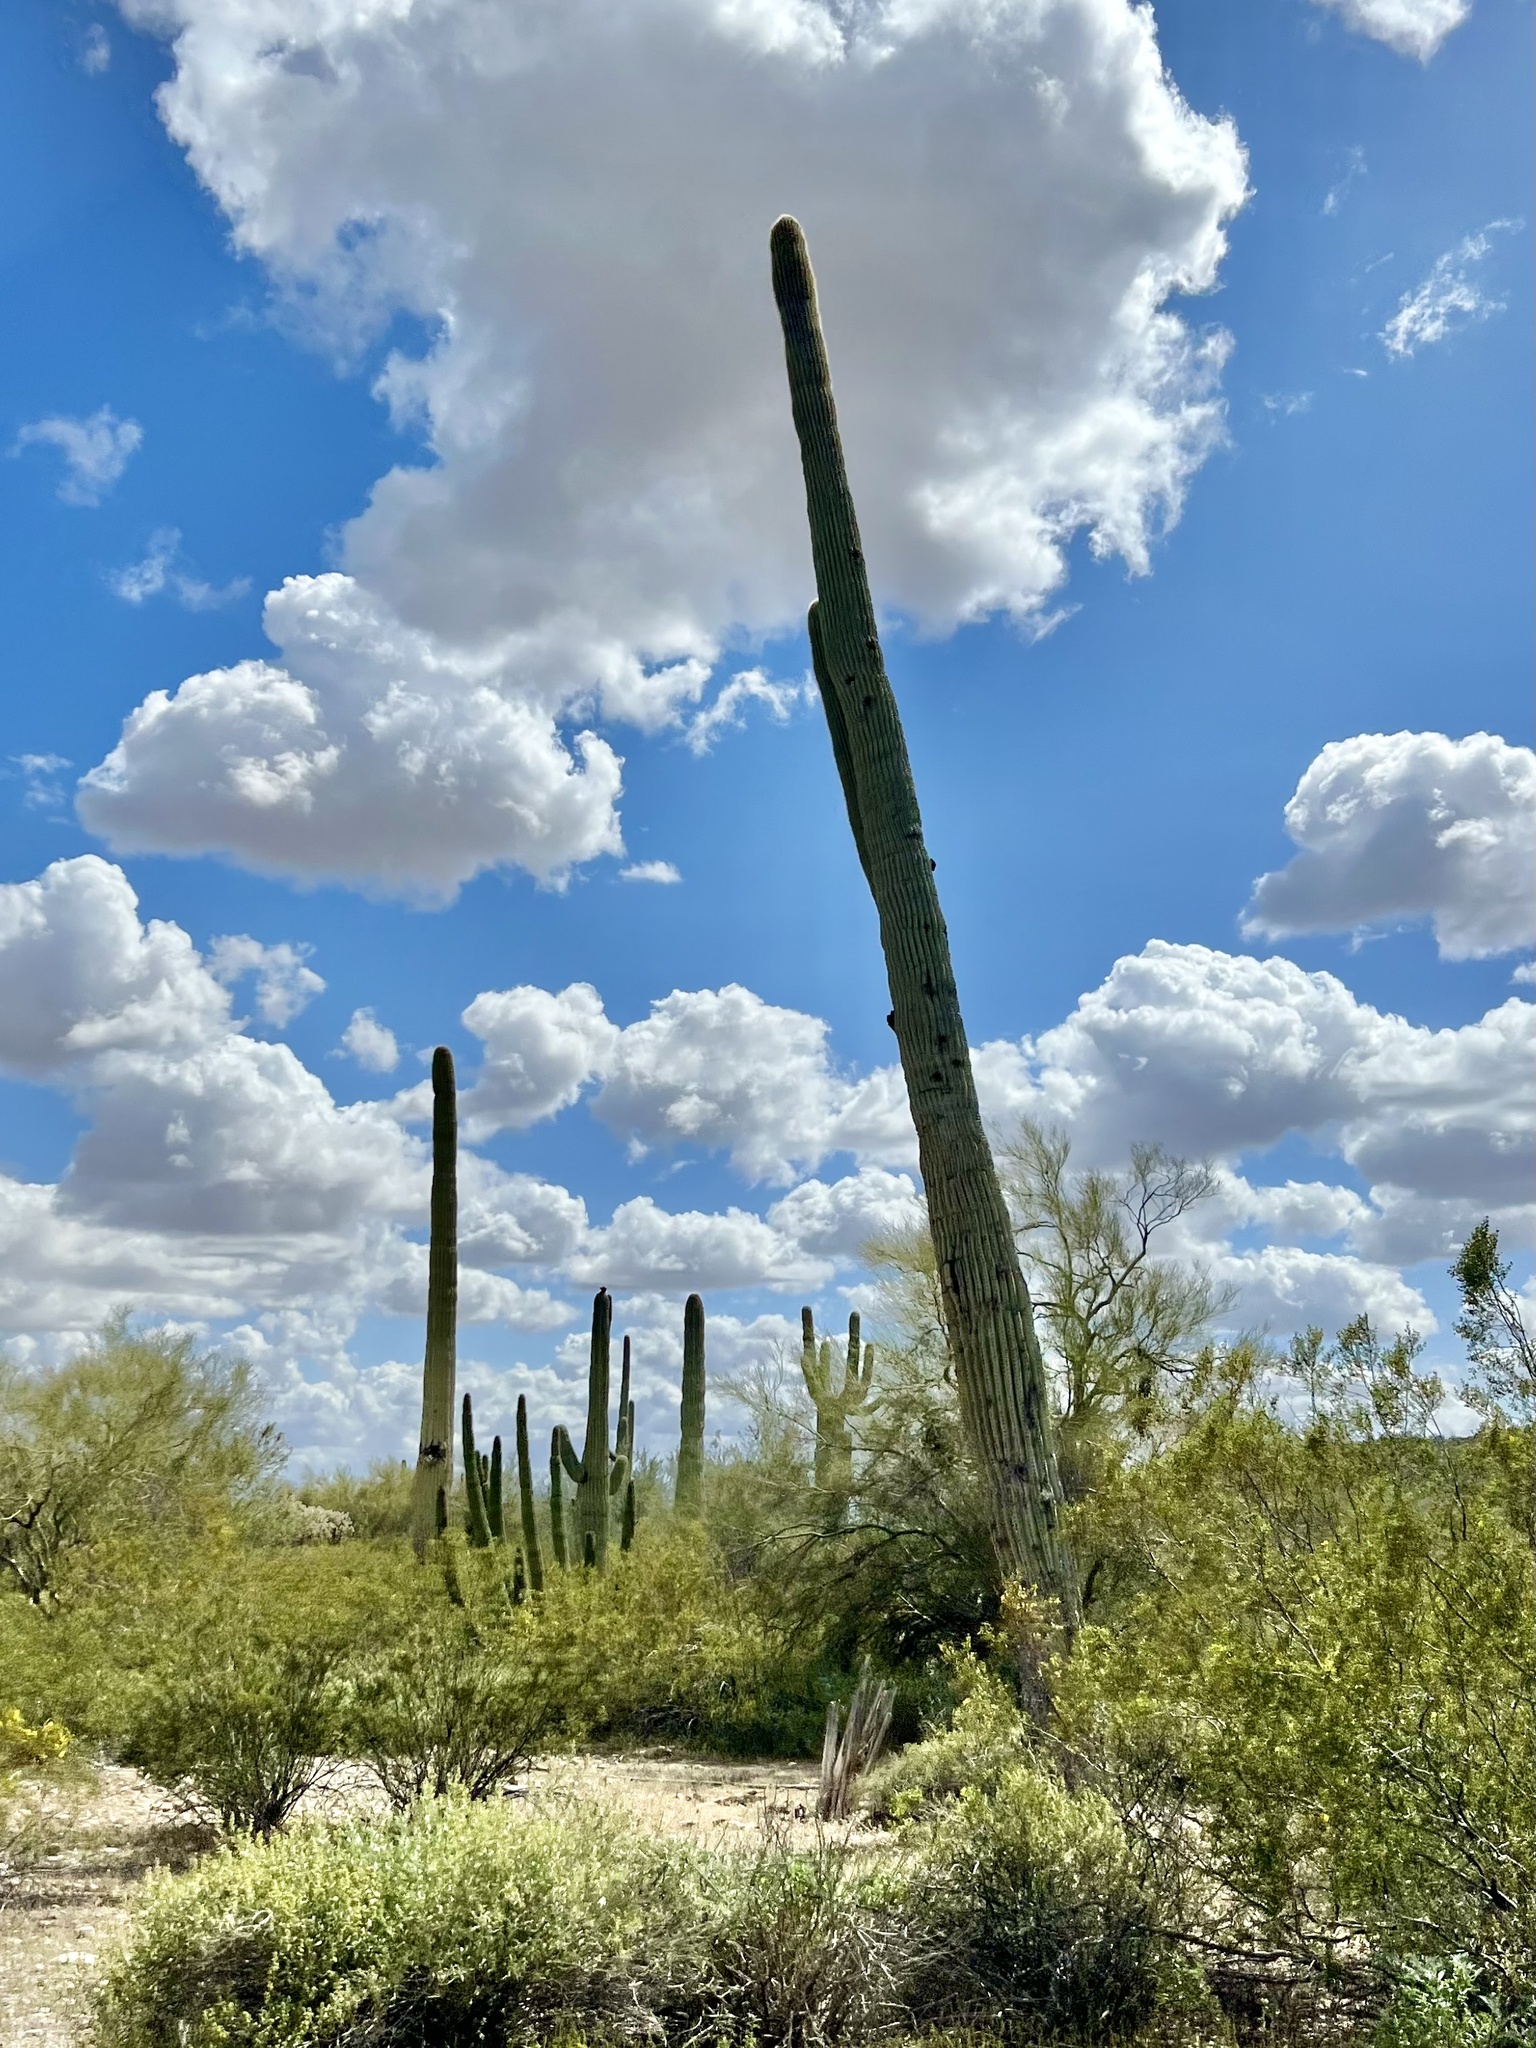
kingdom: Plantae
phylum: Tracheophyta
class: Magnoliopsida
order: Caryophyllales
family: Cactaceae
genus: Carnegiea
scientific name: Carnegiea gigantea
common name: Saguaro
